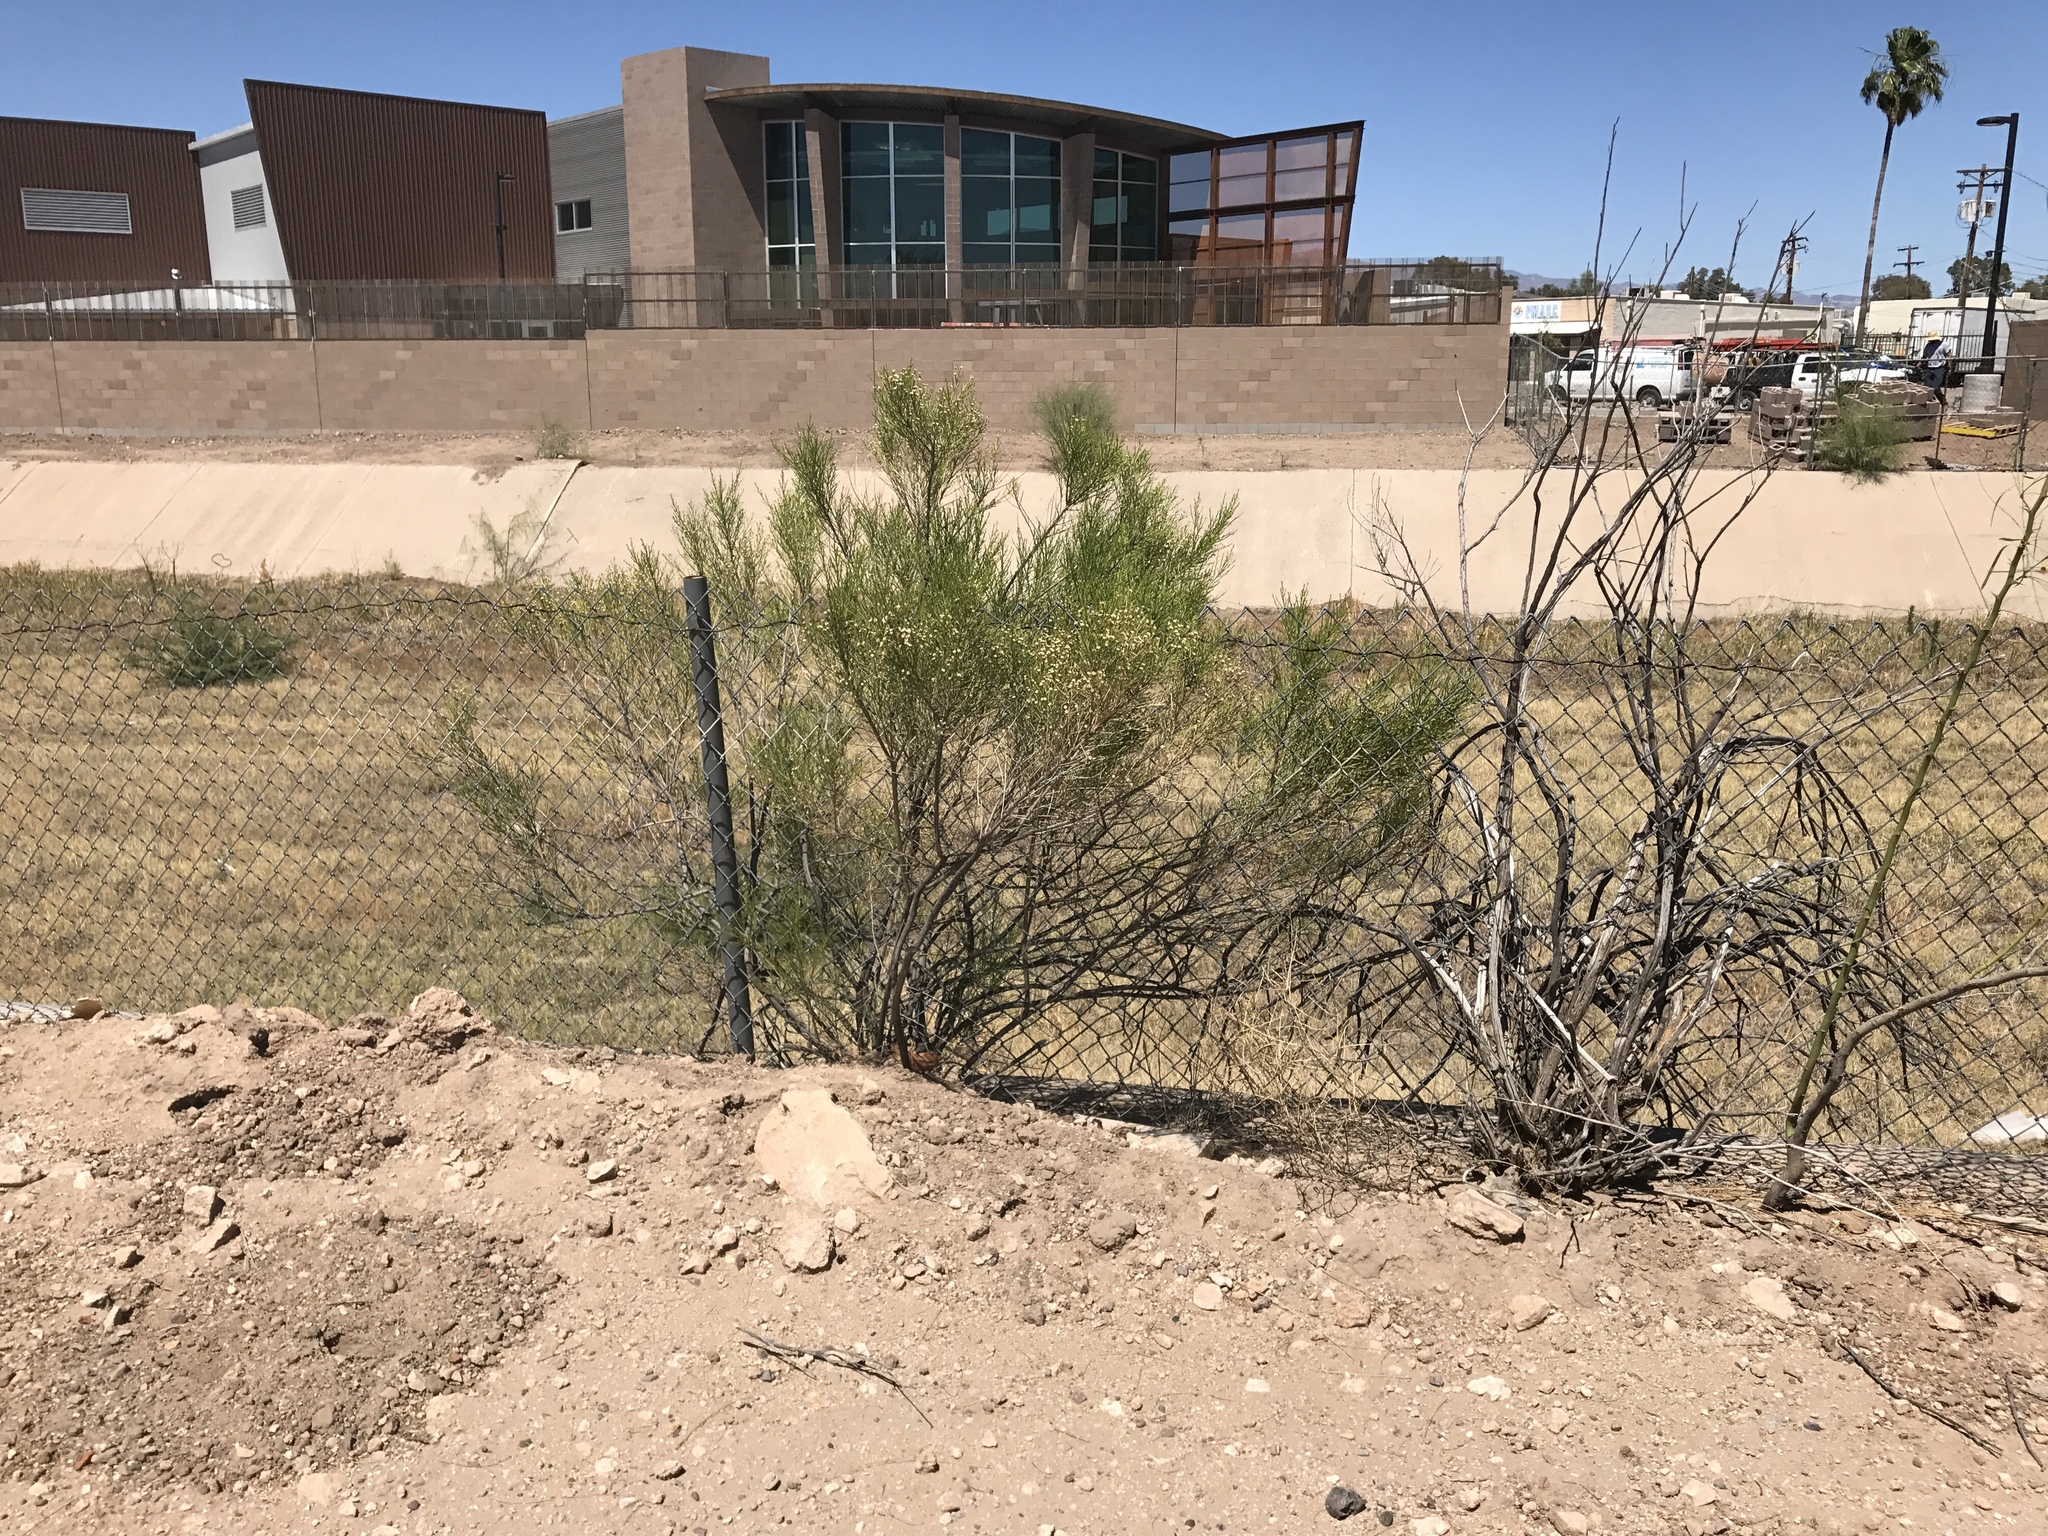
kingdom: Plantae
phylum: Tracheophyta
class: Magnoliopsida
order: Asterales
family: Asteraceae
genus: Baccharis
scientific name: Baccharis sarothroides
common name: Desert-broom
